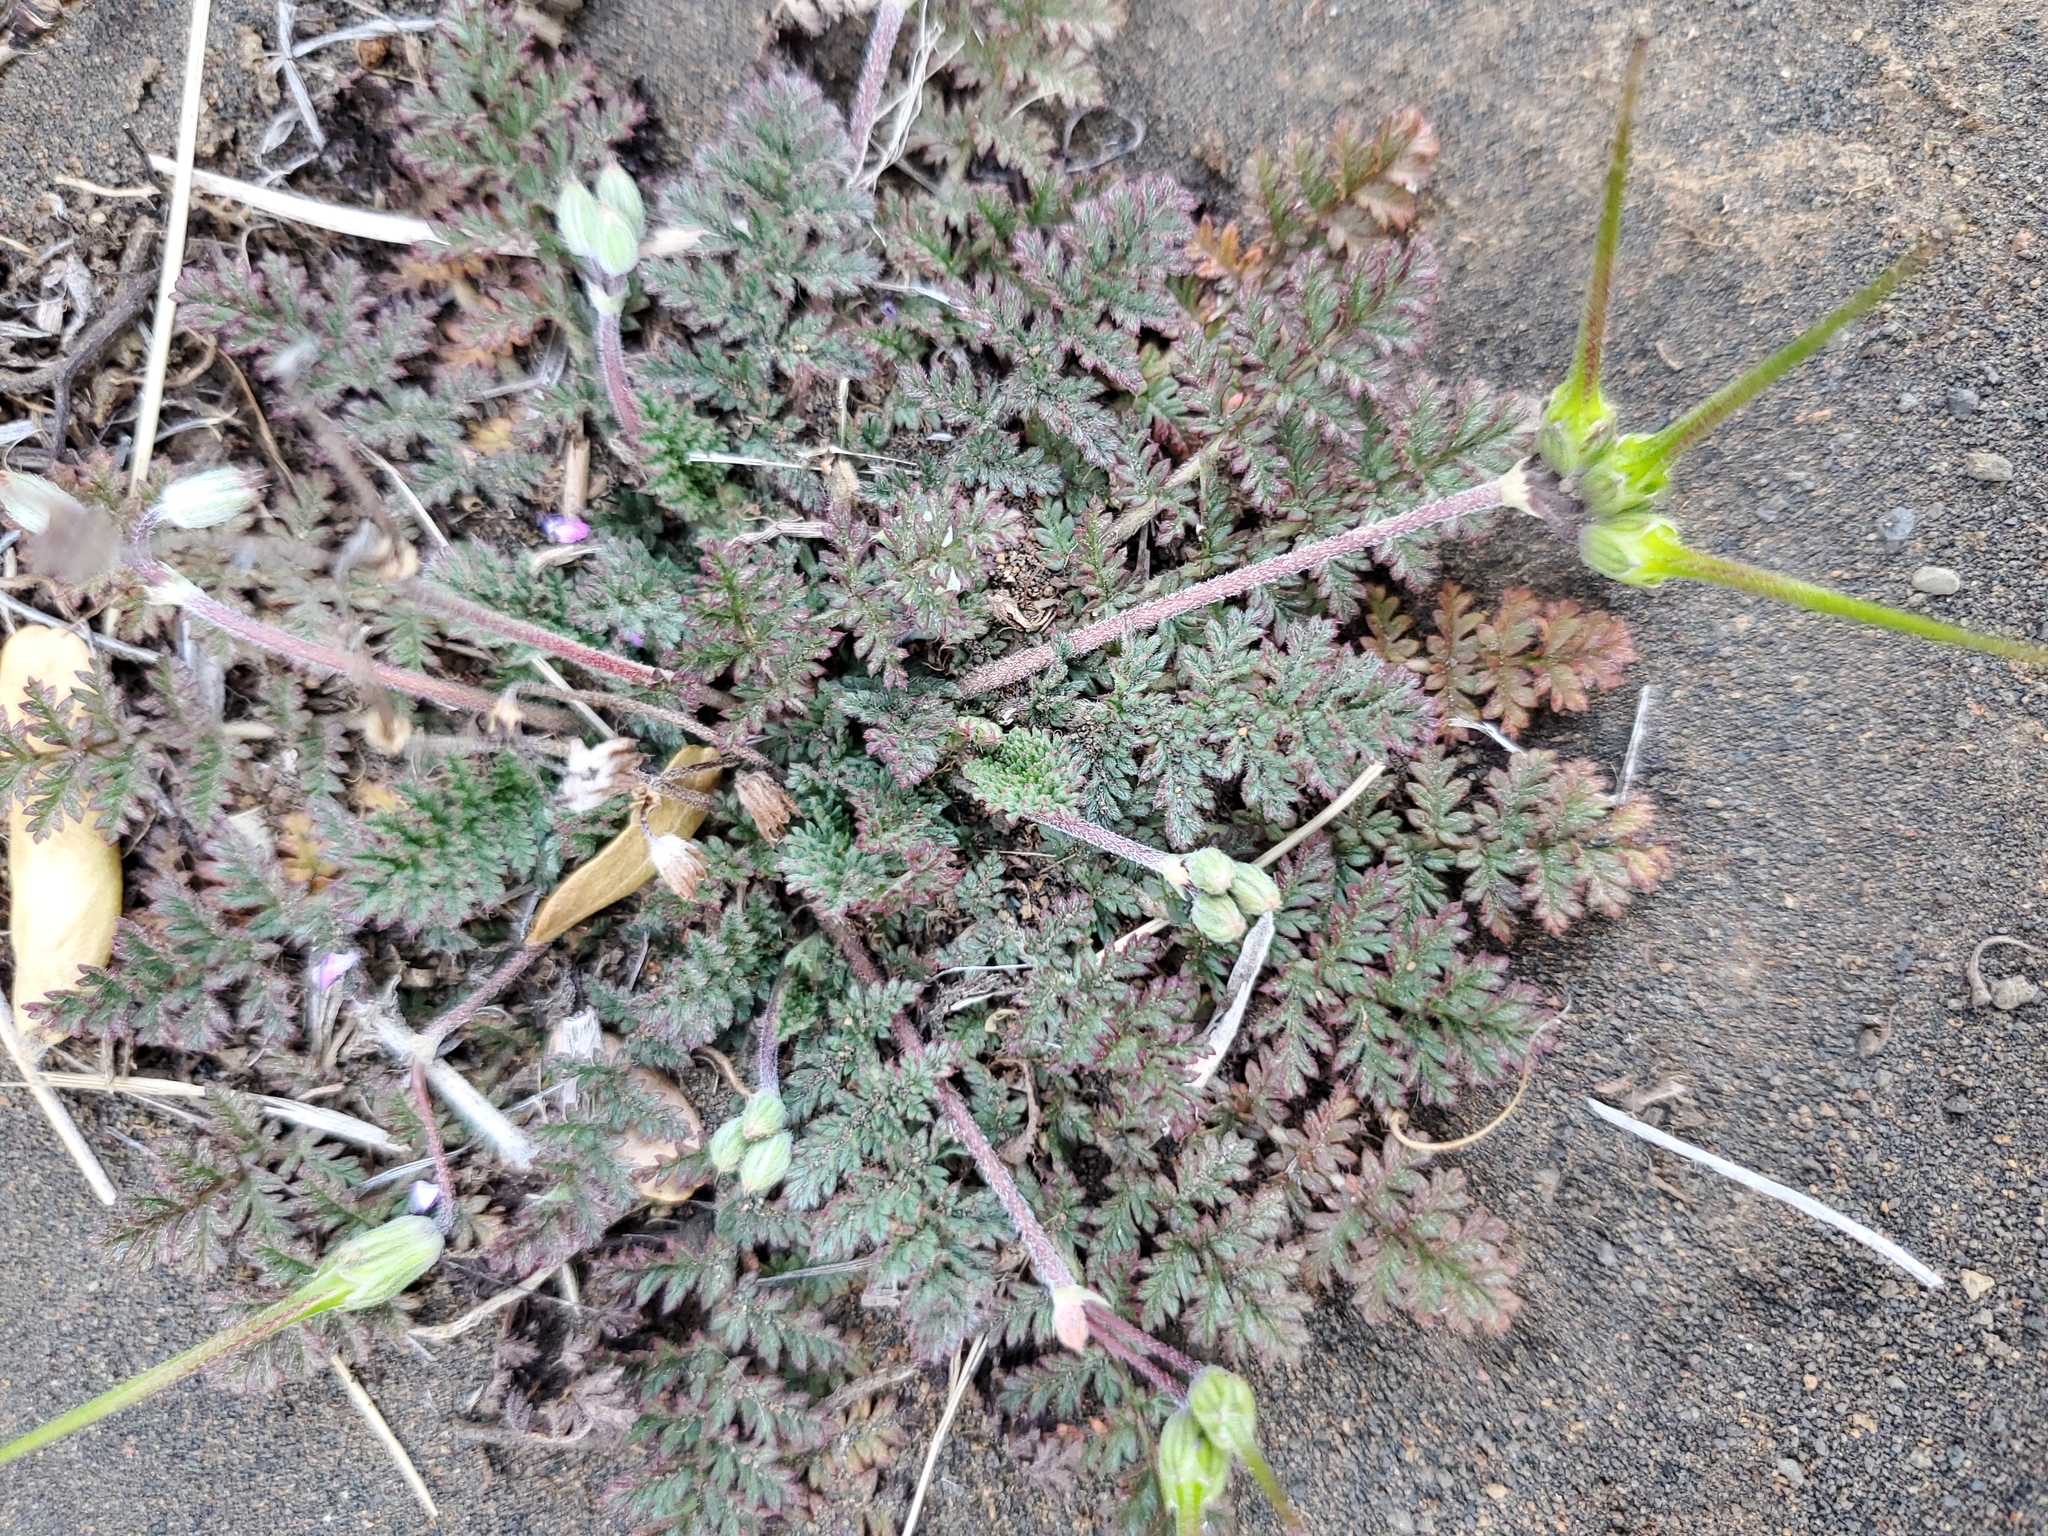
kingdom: Plantae
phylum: Tracheophyta
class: Magnoliopsida
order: Geraniales
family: Geraniaceae
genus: Erodium
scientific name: Erodium cicutarium
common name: Common stork's-bill
